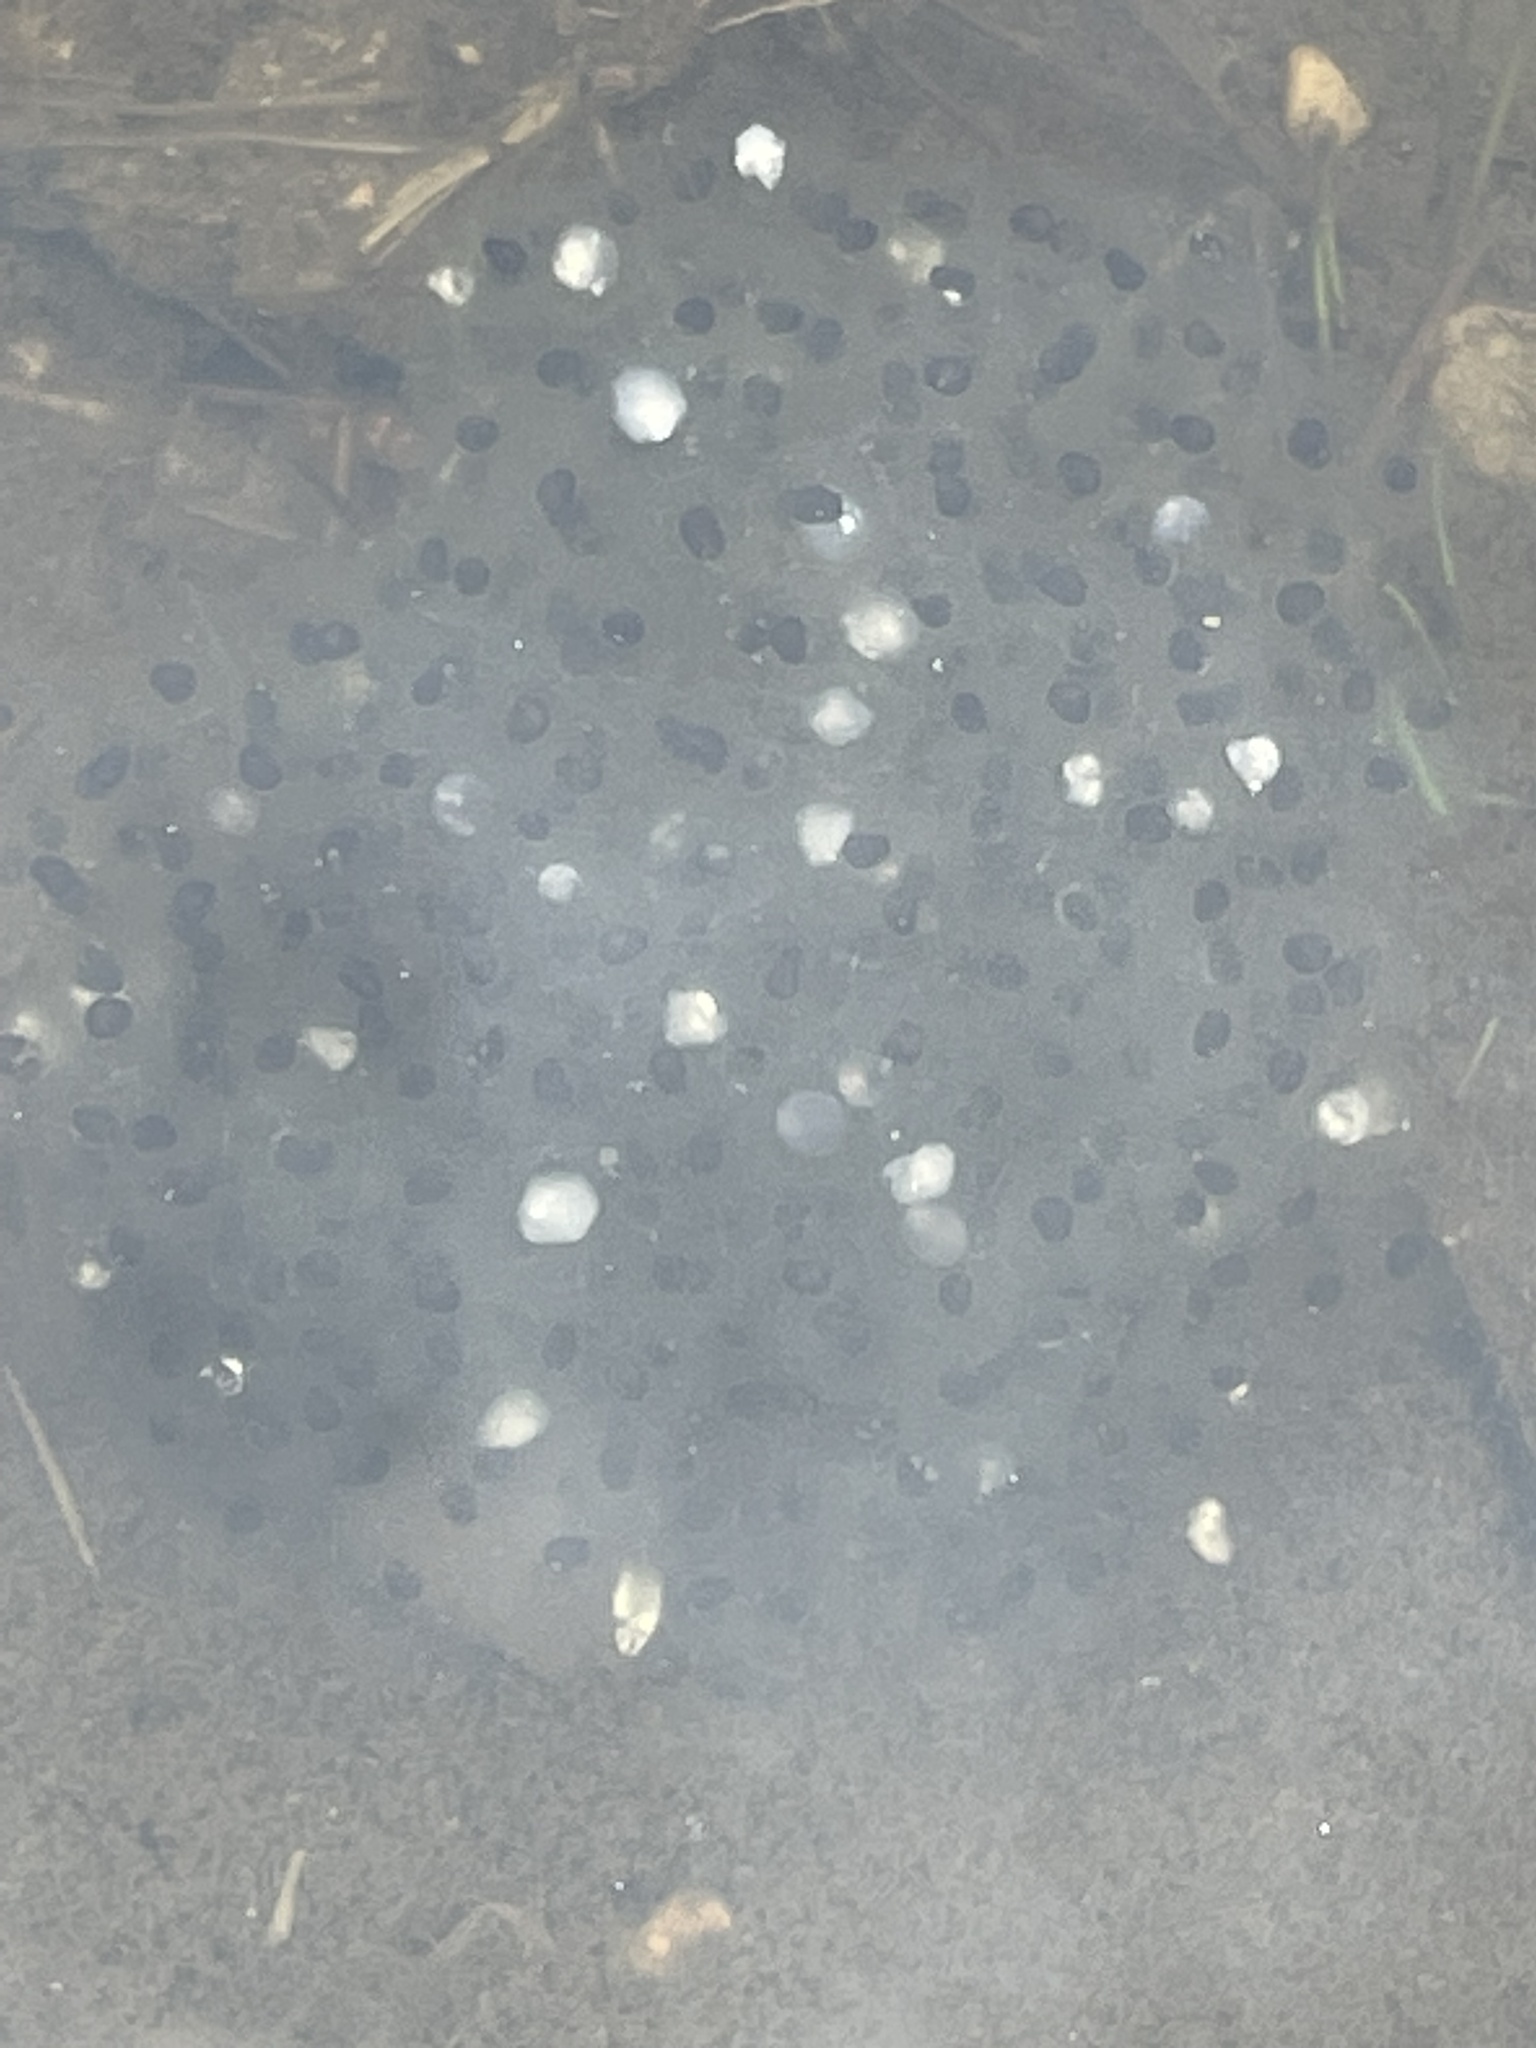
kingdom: Animalia
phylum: Chordata
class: Amphibia
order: Anura
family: Ranidae
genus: Lithobates
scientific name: Lithobates sylvaticus
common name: Wood frog
